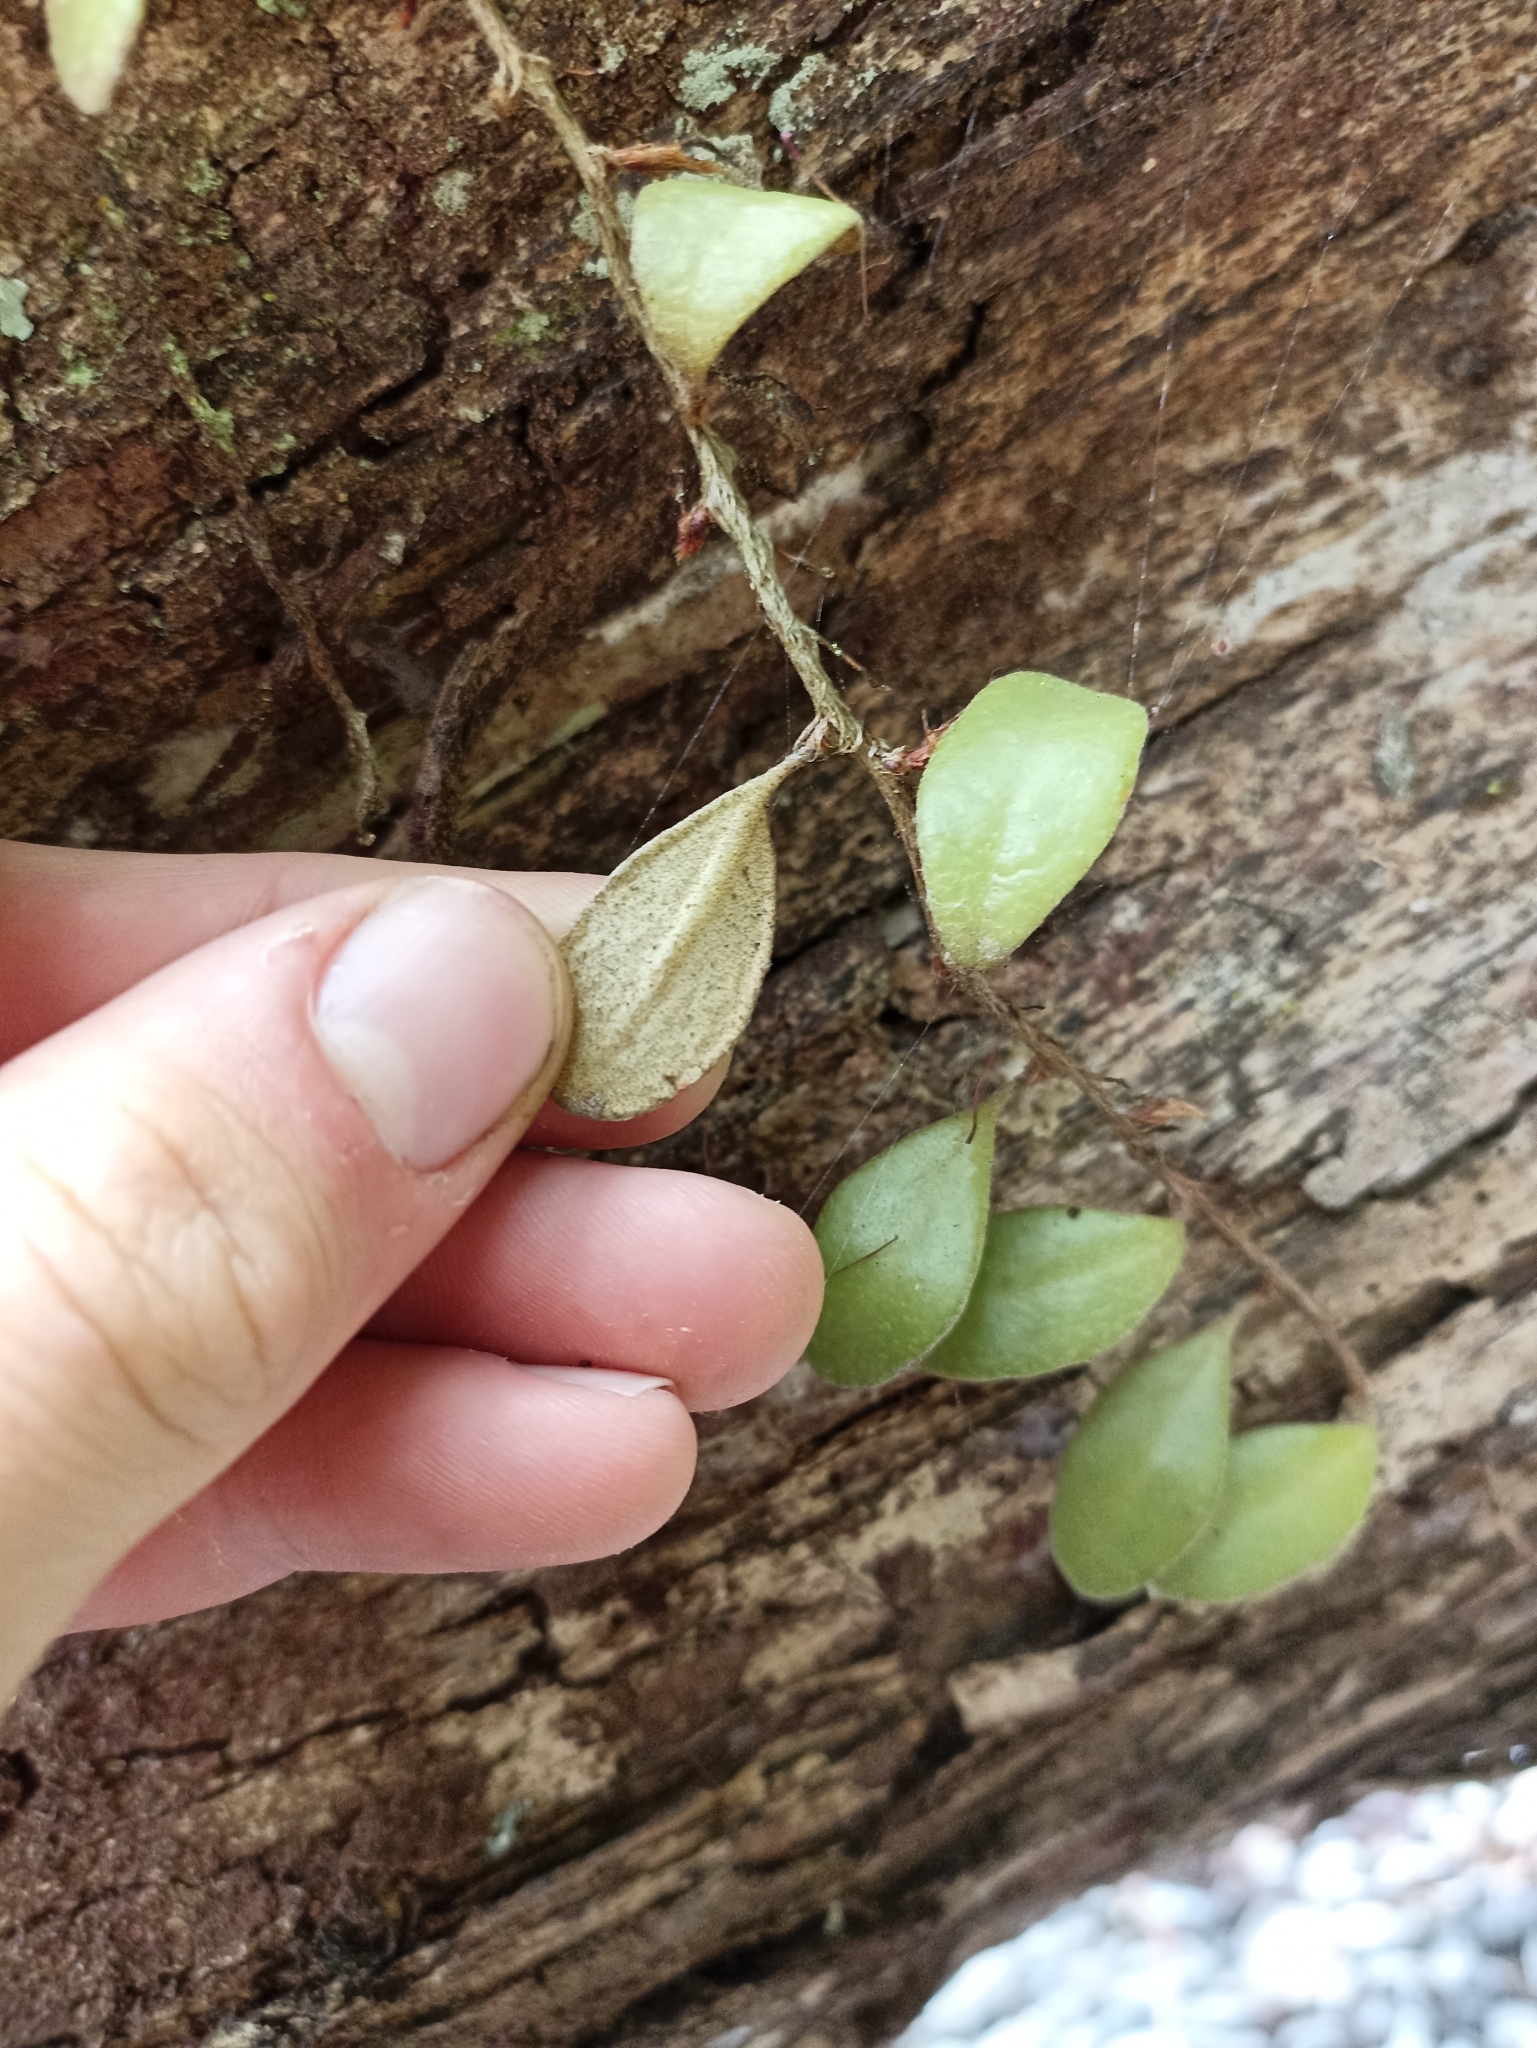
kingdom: Plantae
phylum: Tracheophyta
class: Polypodiopsida
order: Polypodiales
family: Polypodiaceae
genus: Pyrrosia
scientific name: Pyrrosia eleagnifolia
